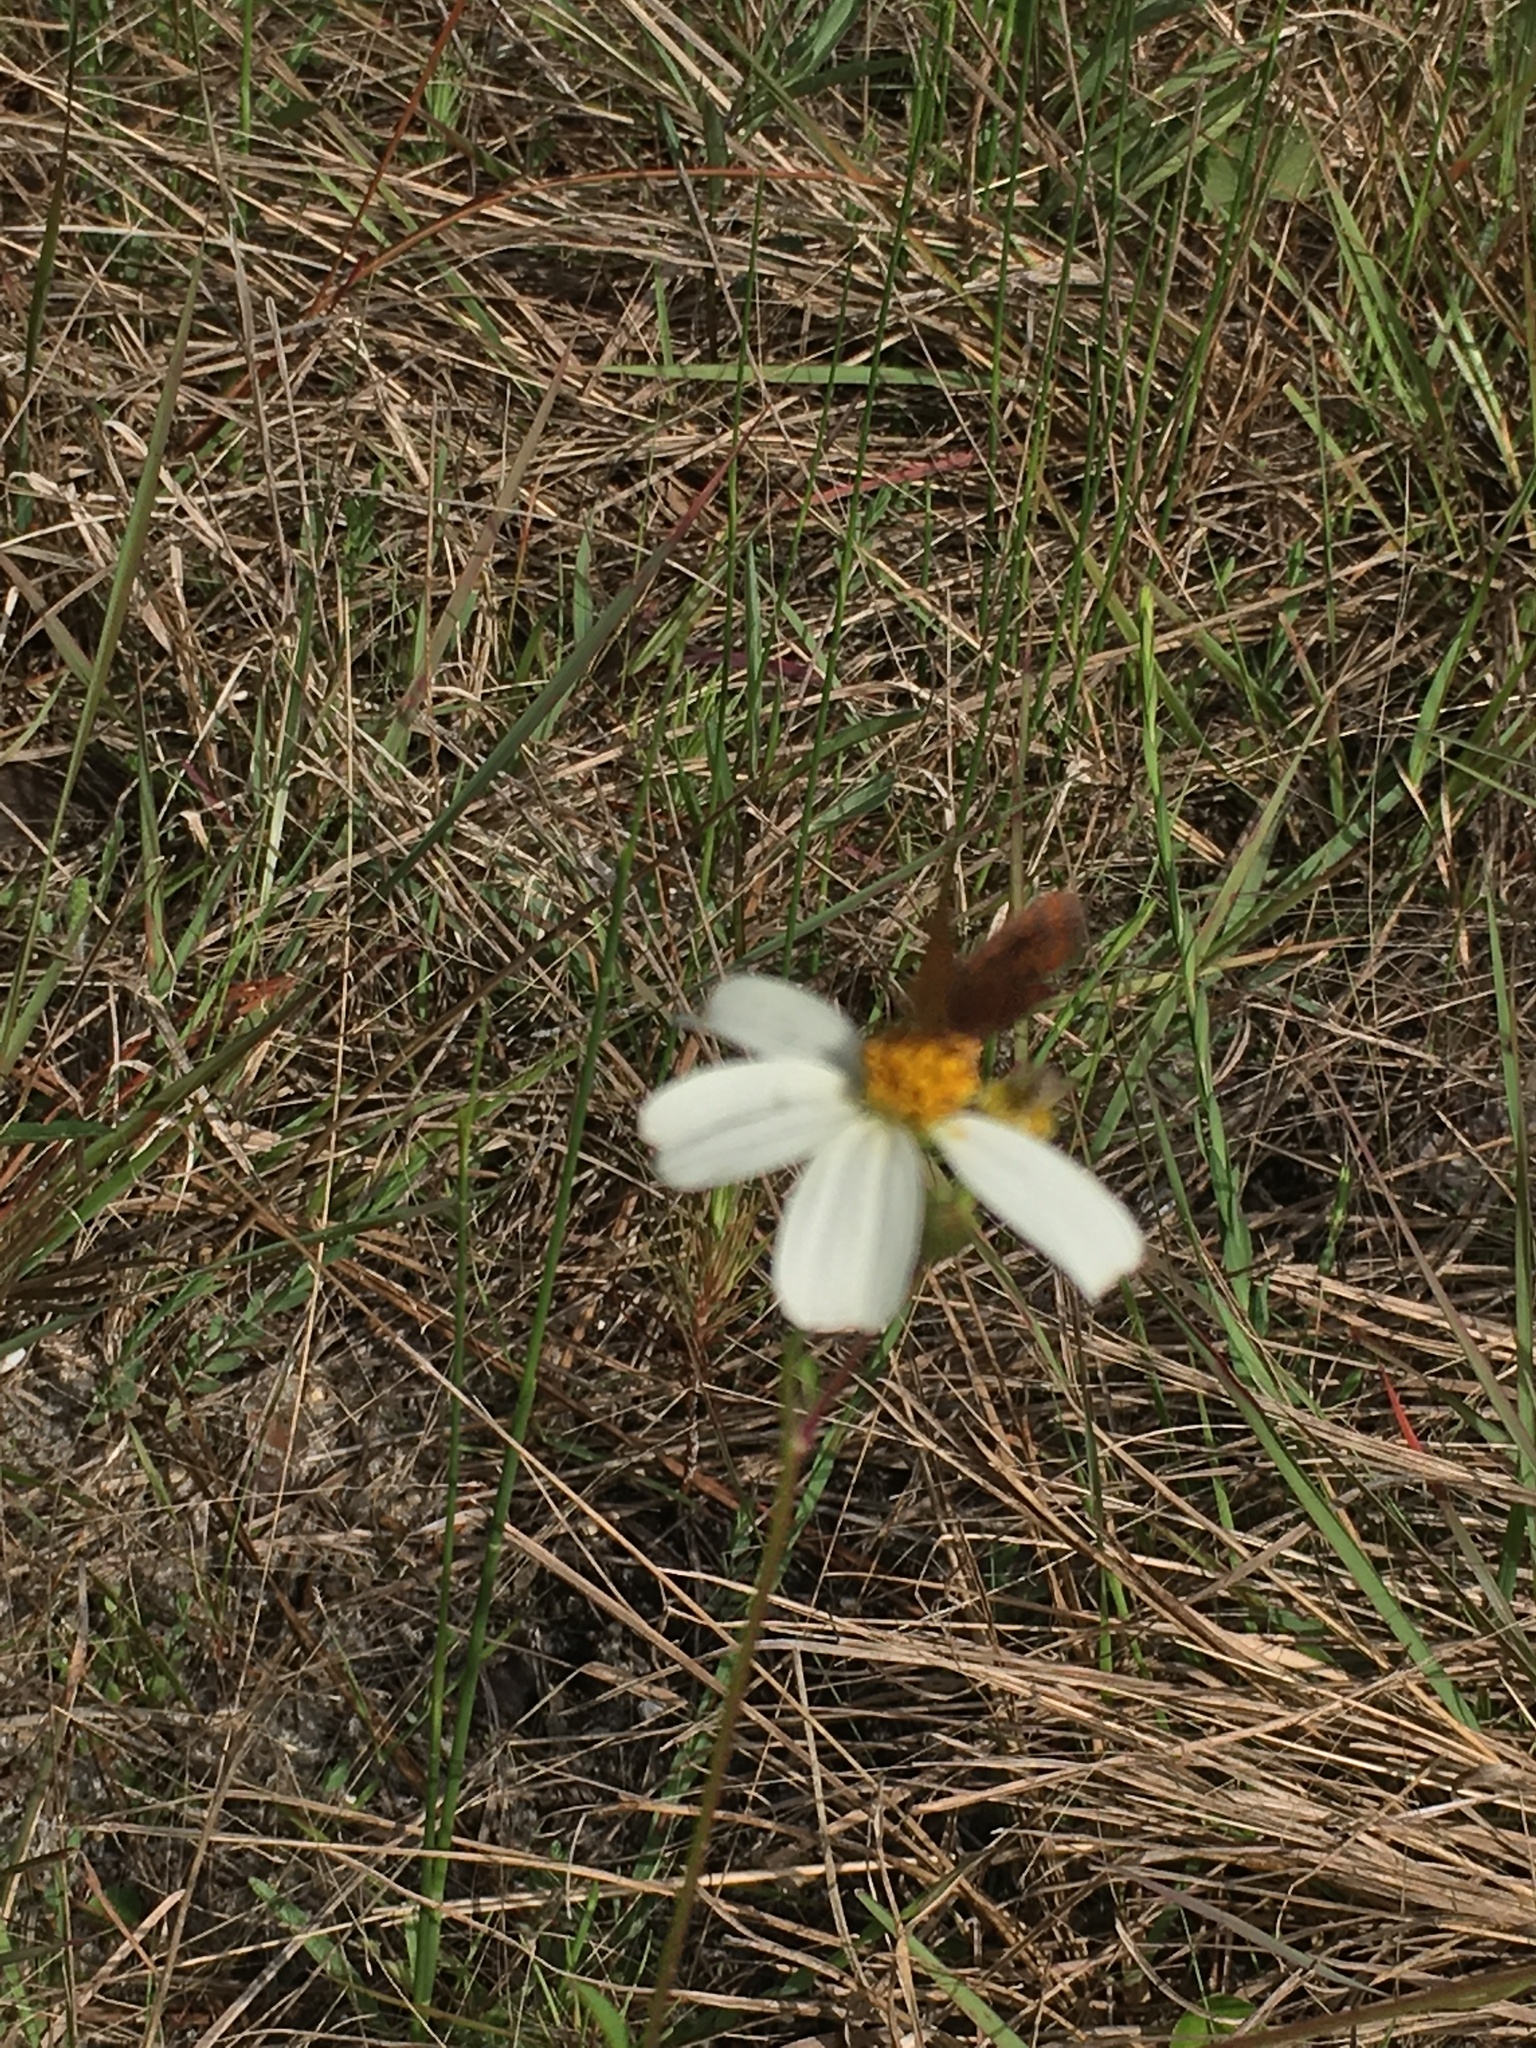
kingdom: Plantae
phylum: Tracheophyta
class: Magnoliopsida
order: Asterales
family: Asteraceae
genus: Bidens
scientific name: Bidens alba
